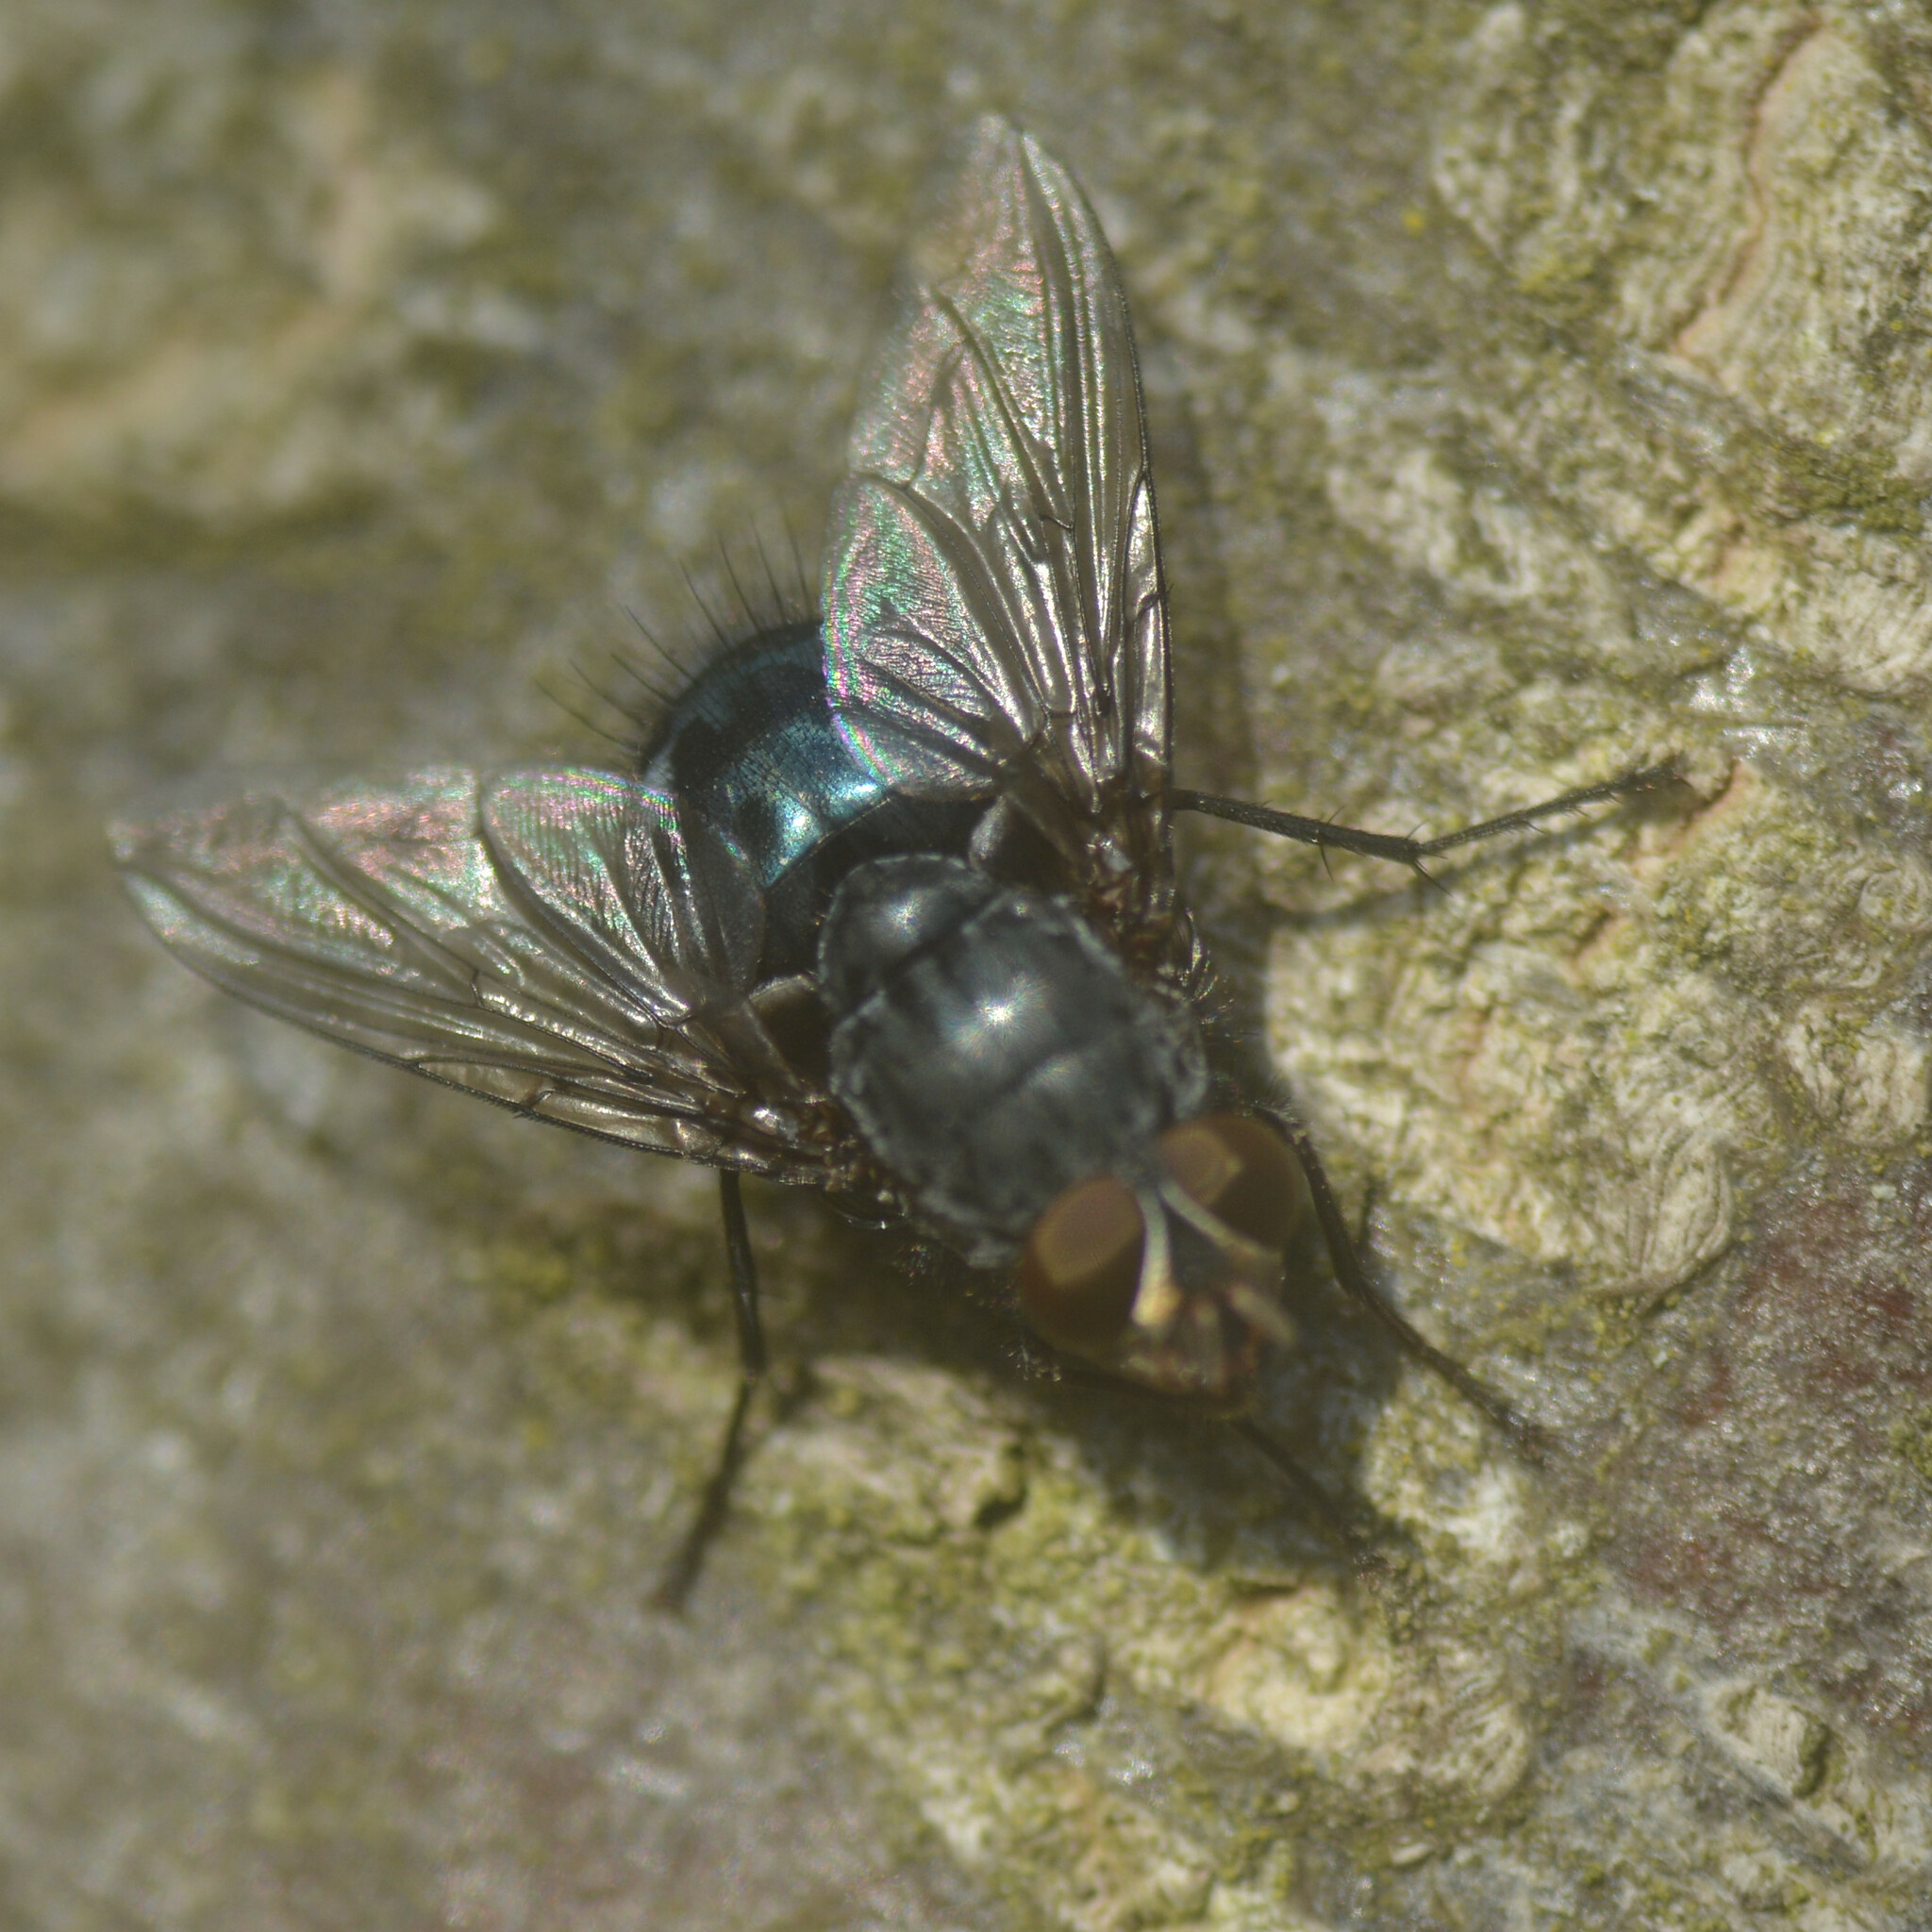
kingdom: Animalia
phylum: Arthropoda
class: Insecta
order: Diptera
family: Calliphoridae
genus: Calliphora
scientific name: Calliphora vicina
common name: Common blow flie
